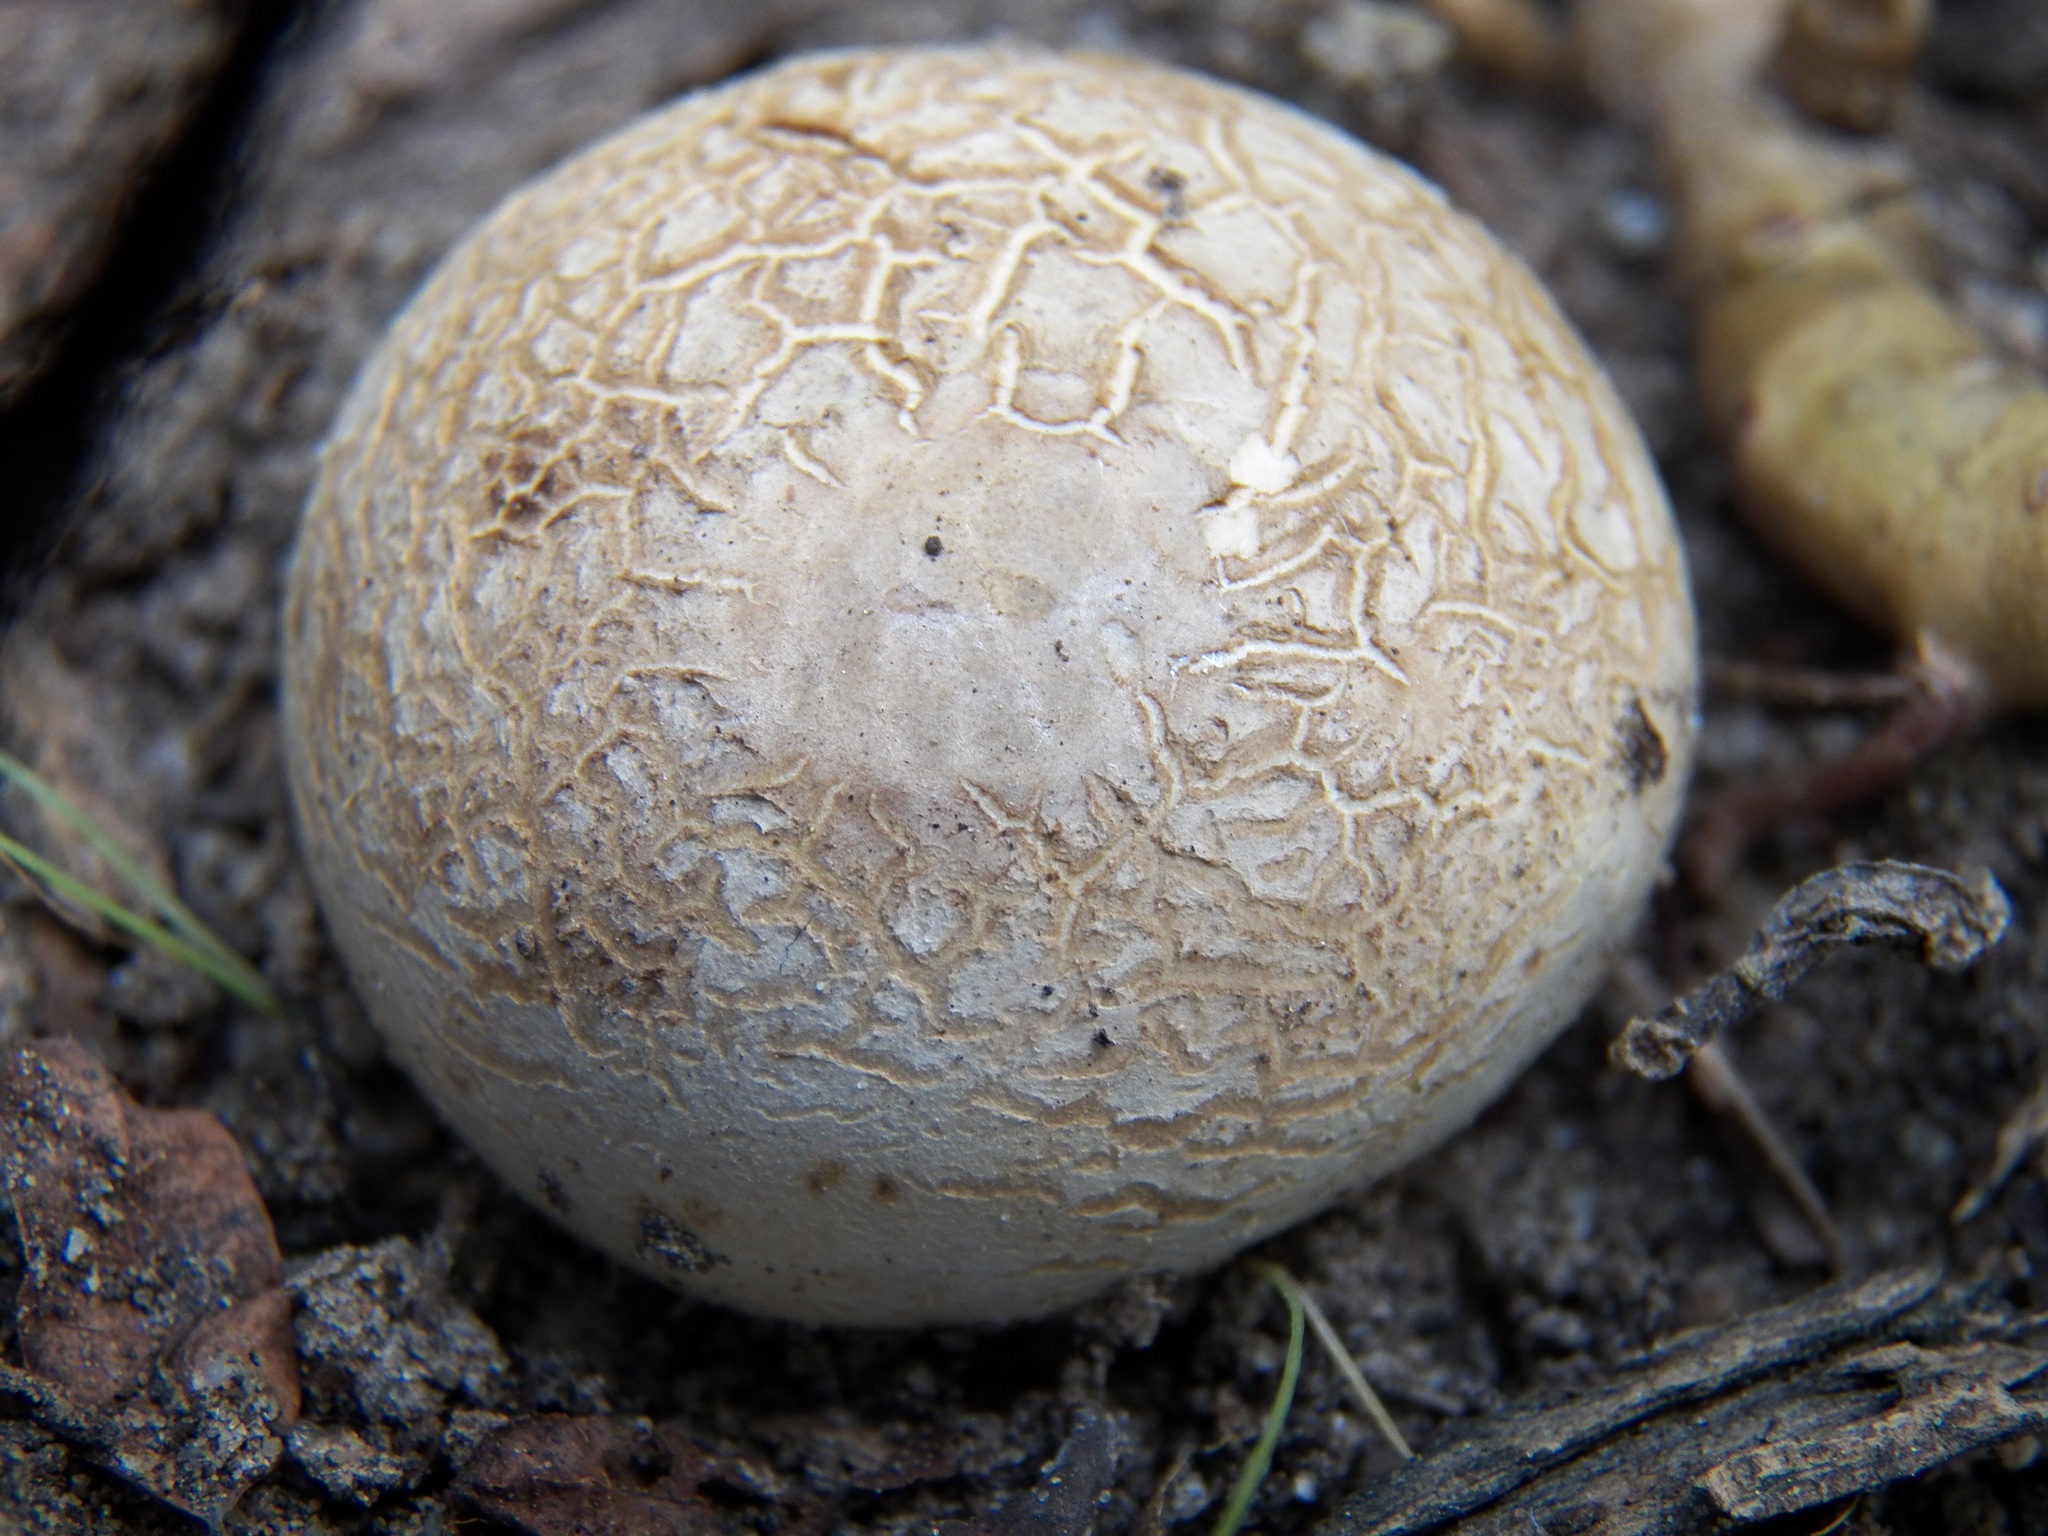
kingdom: Fungi
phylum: Basidiomycota
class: Agaricomycetes
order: Boletales
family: Sclerodermataceae
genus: Scleroderma
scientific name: Scleroderma citrinum
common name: Common earthball
